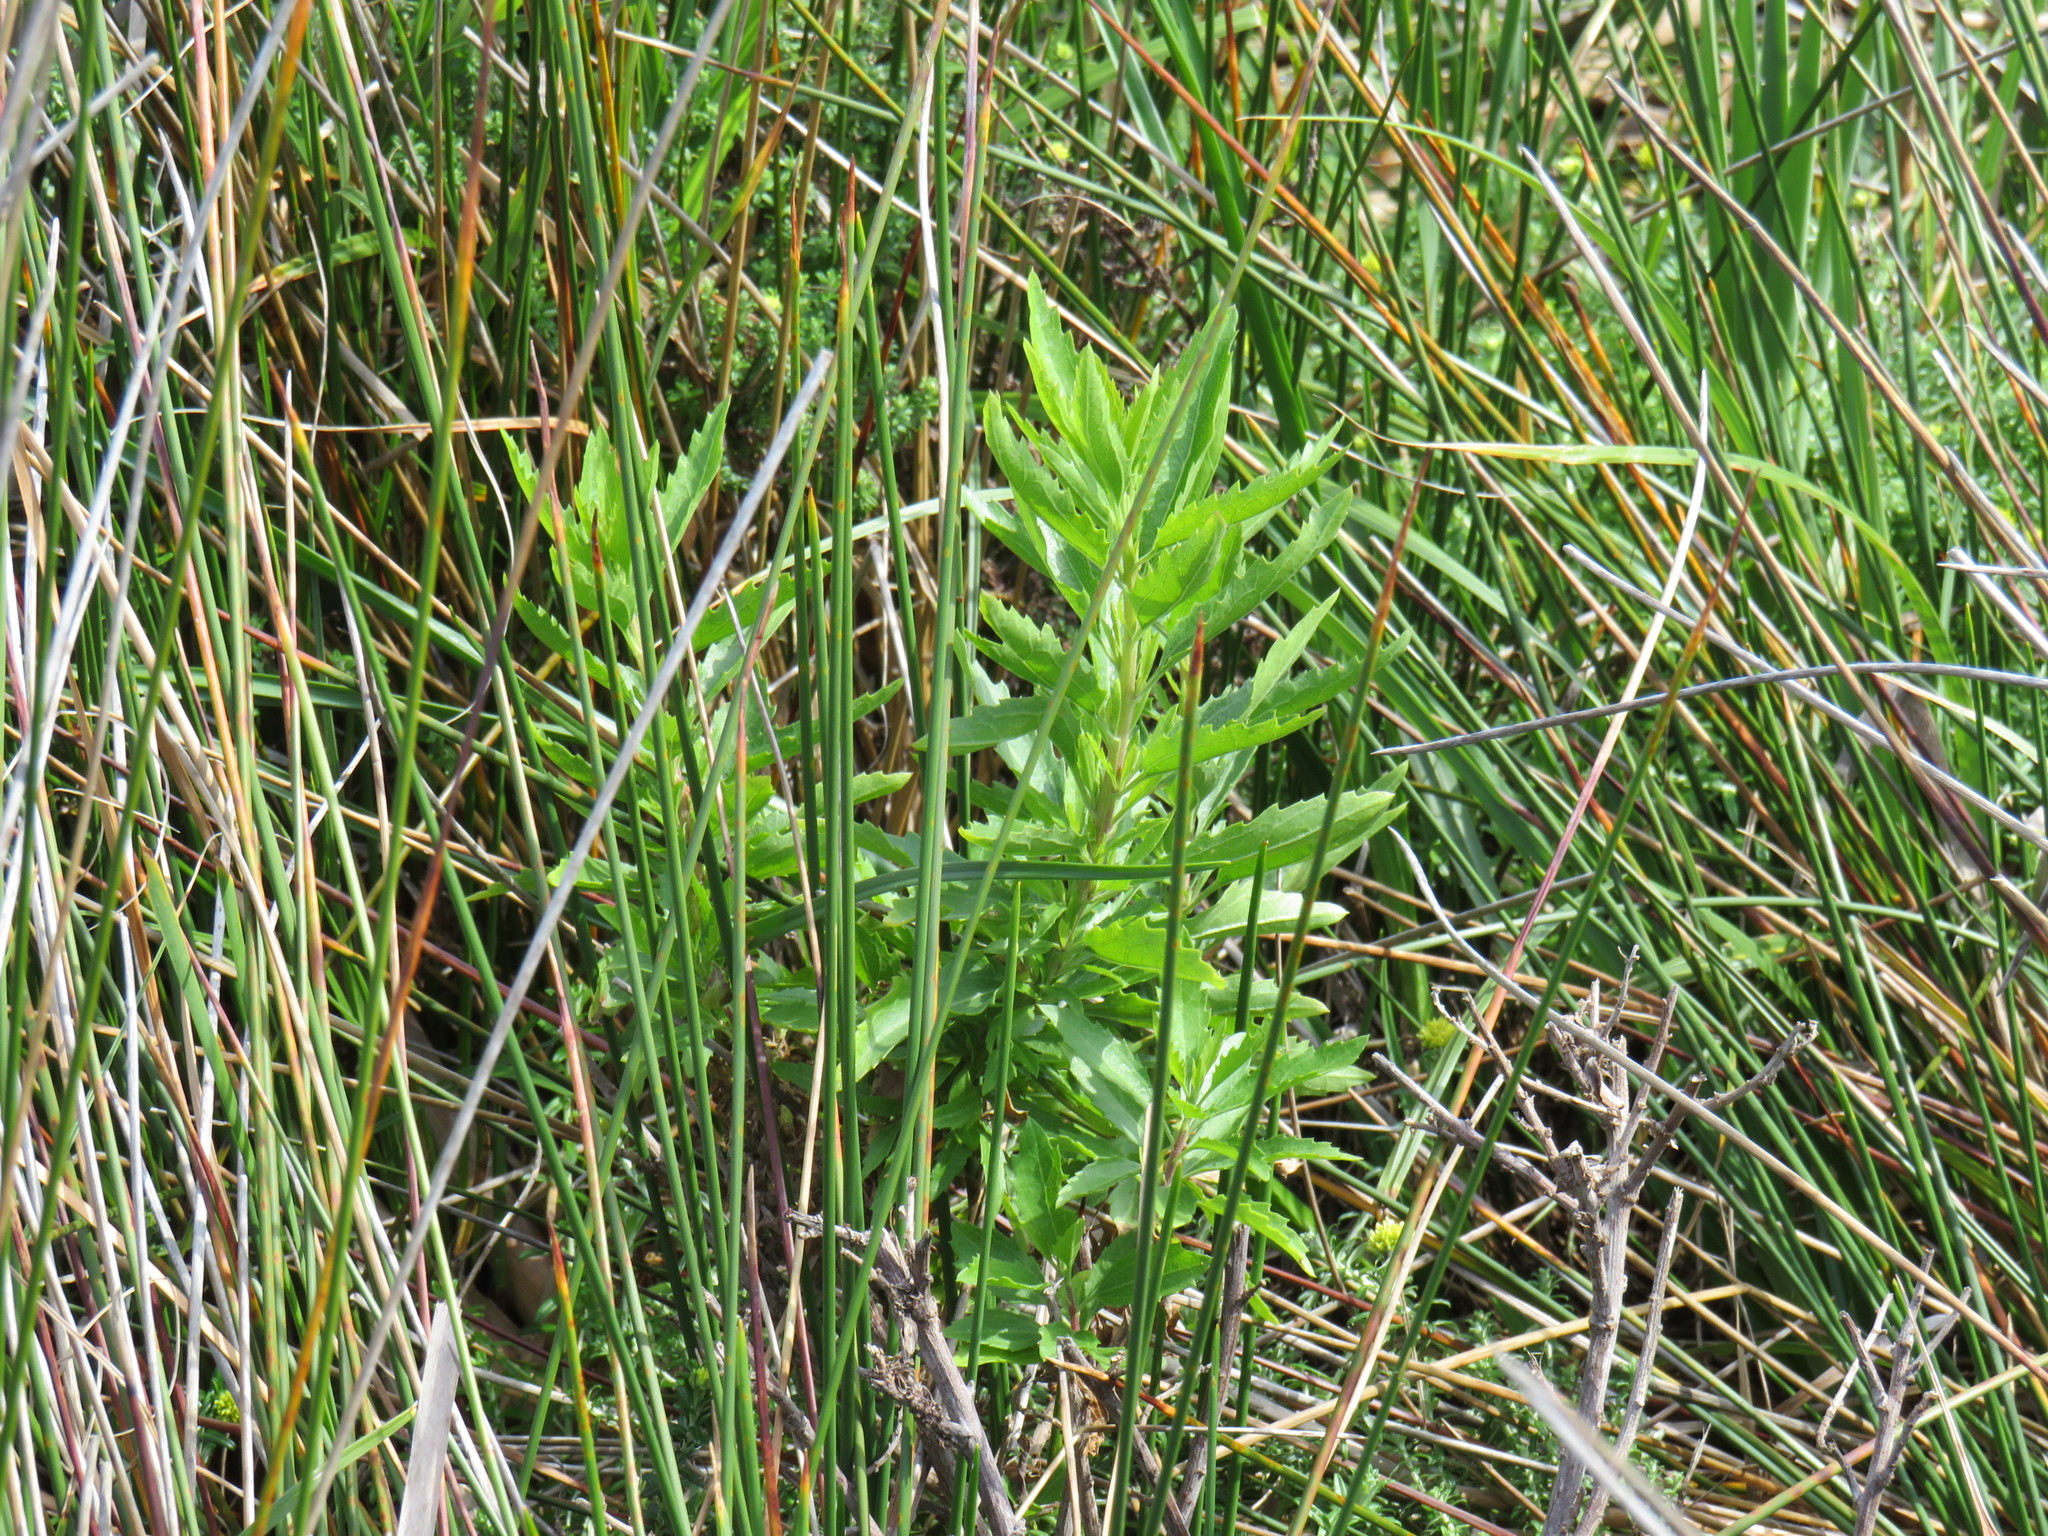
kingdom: Plantae
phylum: Tracheophyta
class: Magnoliopsida
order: Asterales
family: Asteraceae
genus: Nidorella
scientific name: Nidorella ivifolia
